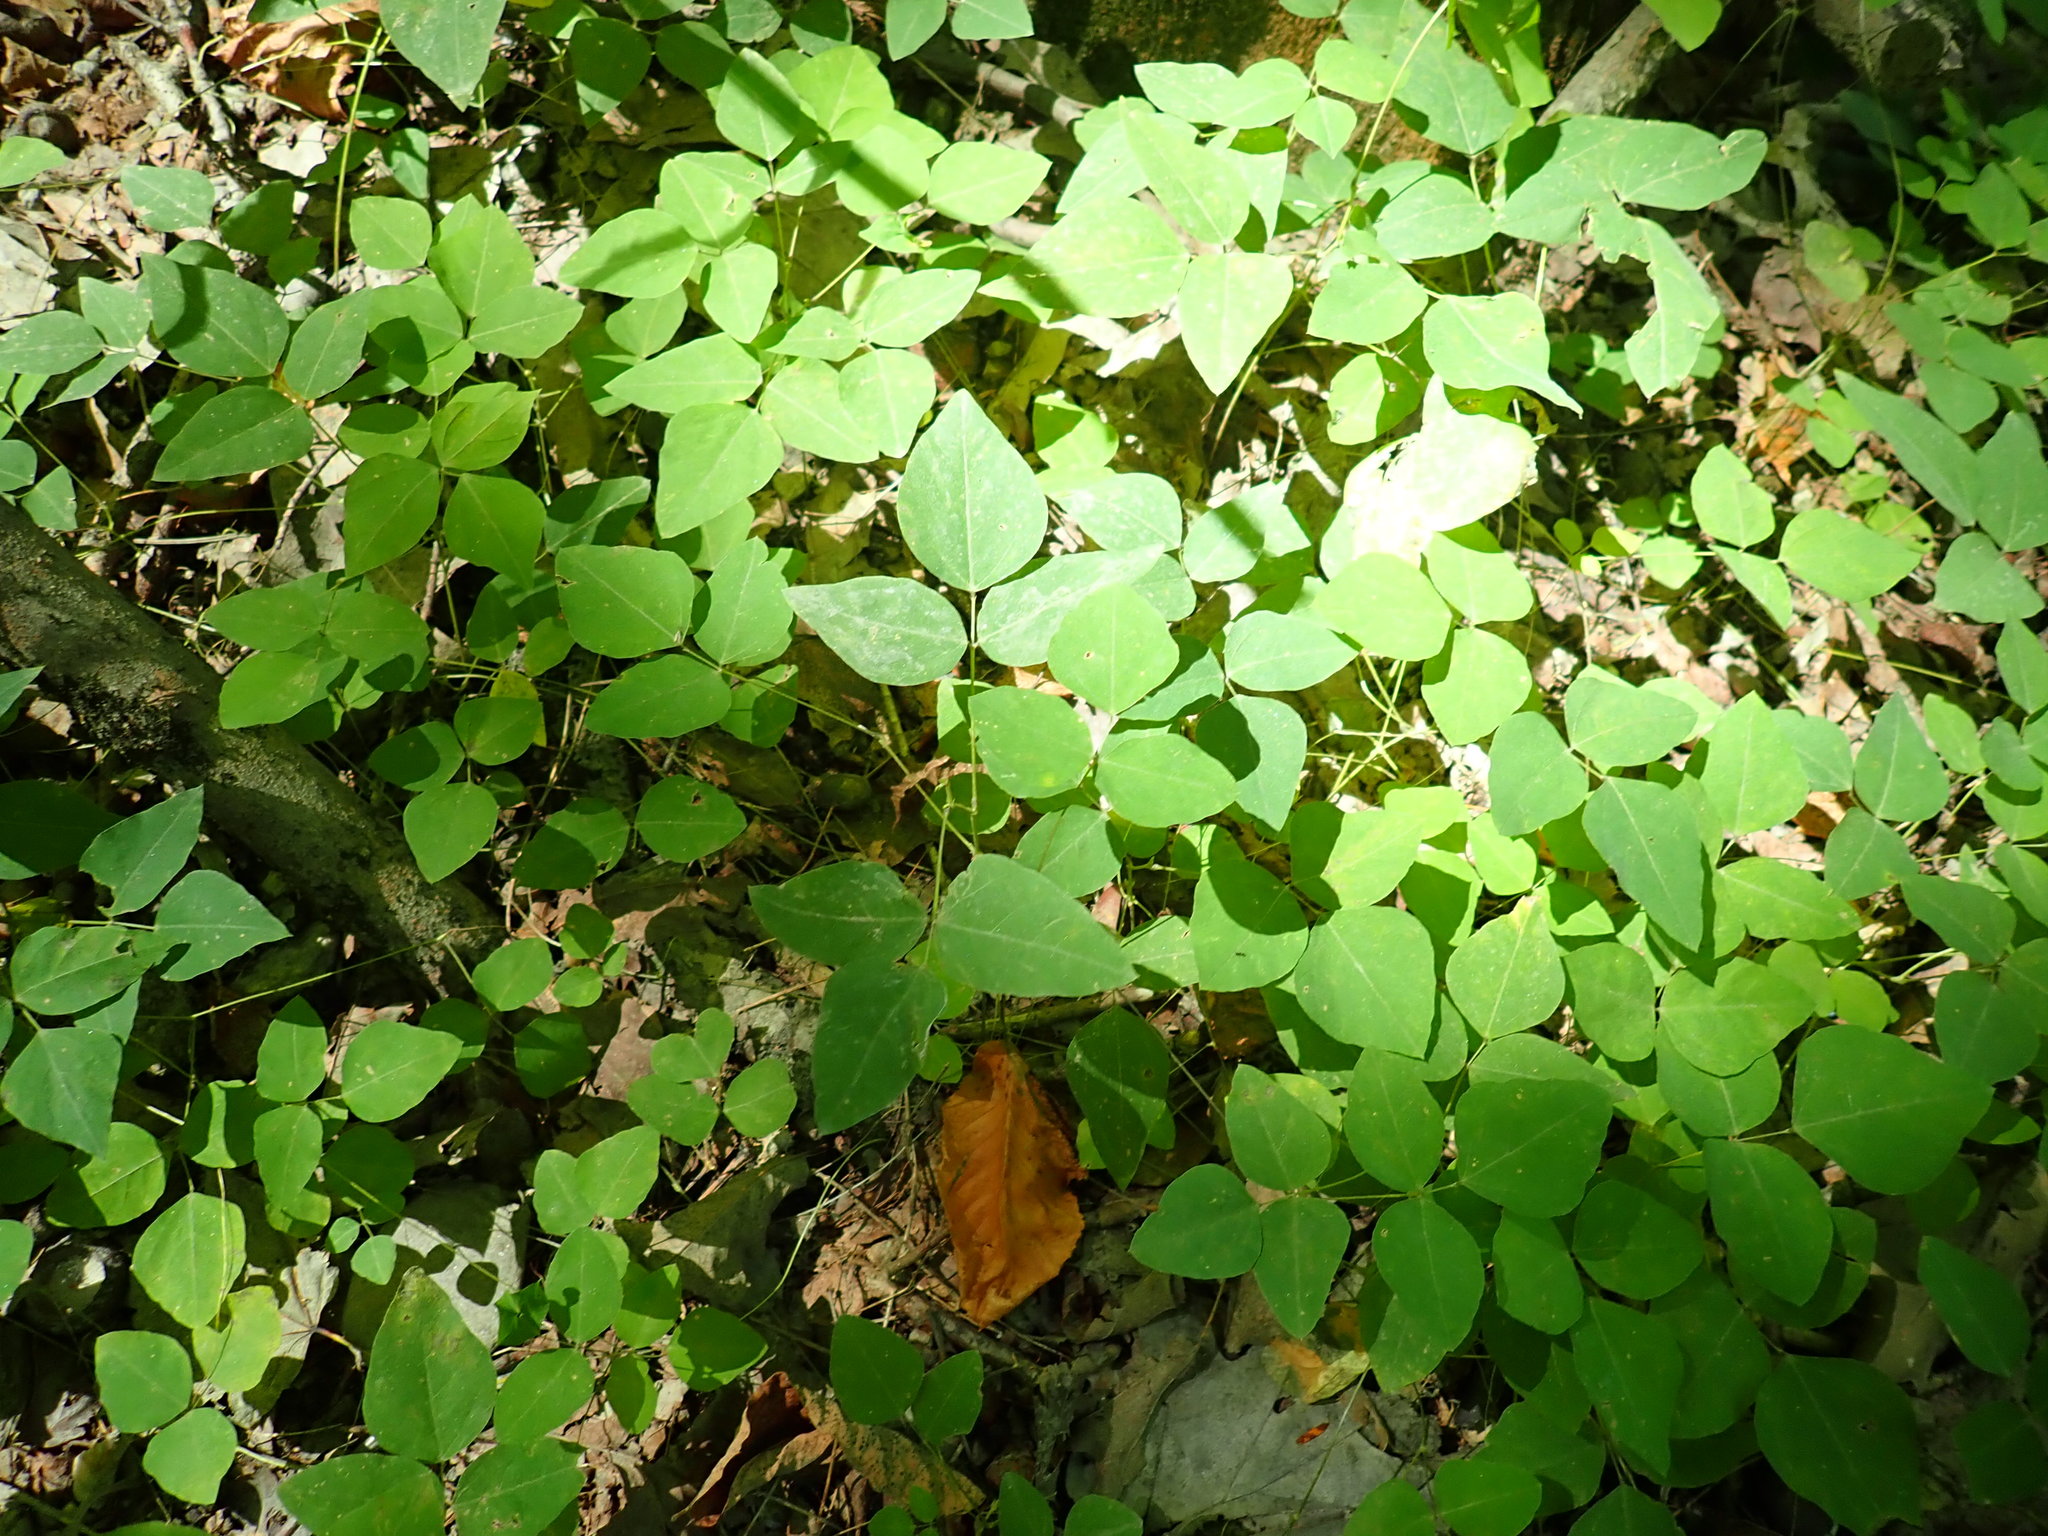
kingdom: Plantae
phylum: Tracheophyta
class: Magnoliopsida
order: Fabales
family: Fabaceae
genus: Amphicarpaea
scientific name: Amphicarpaea bracteata
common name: American hog peanut
